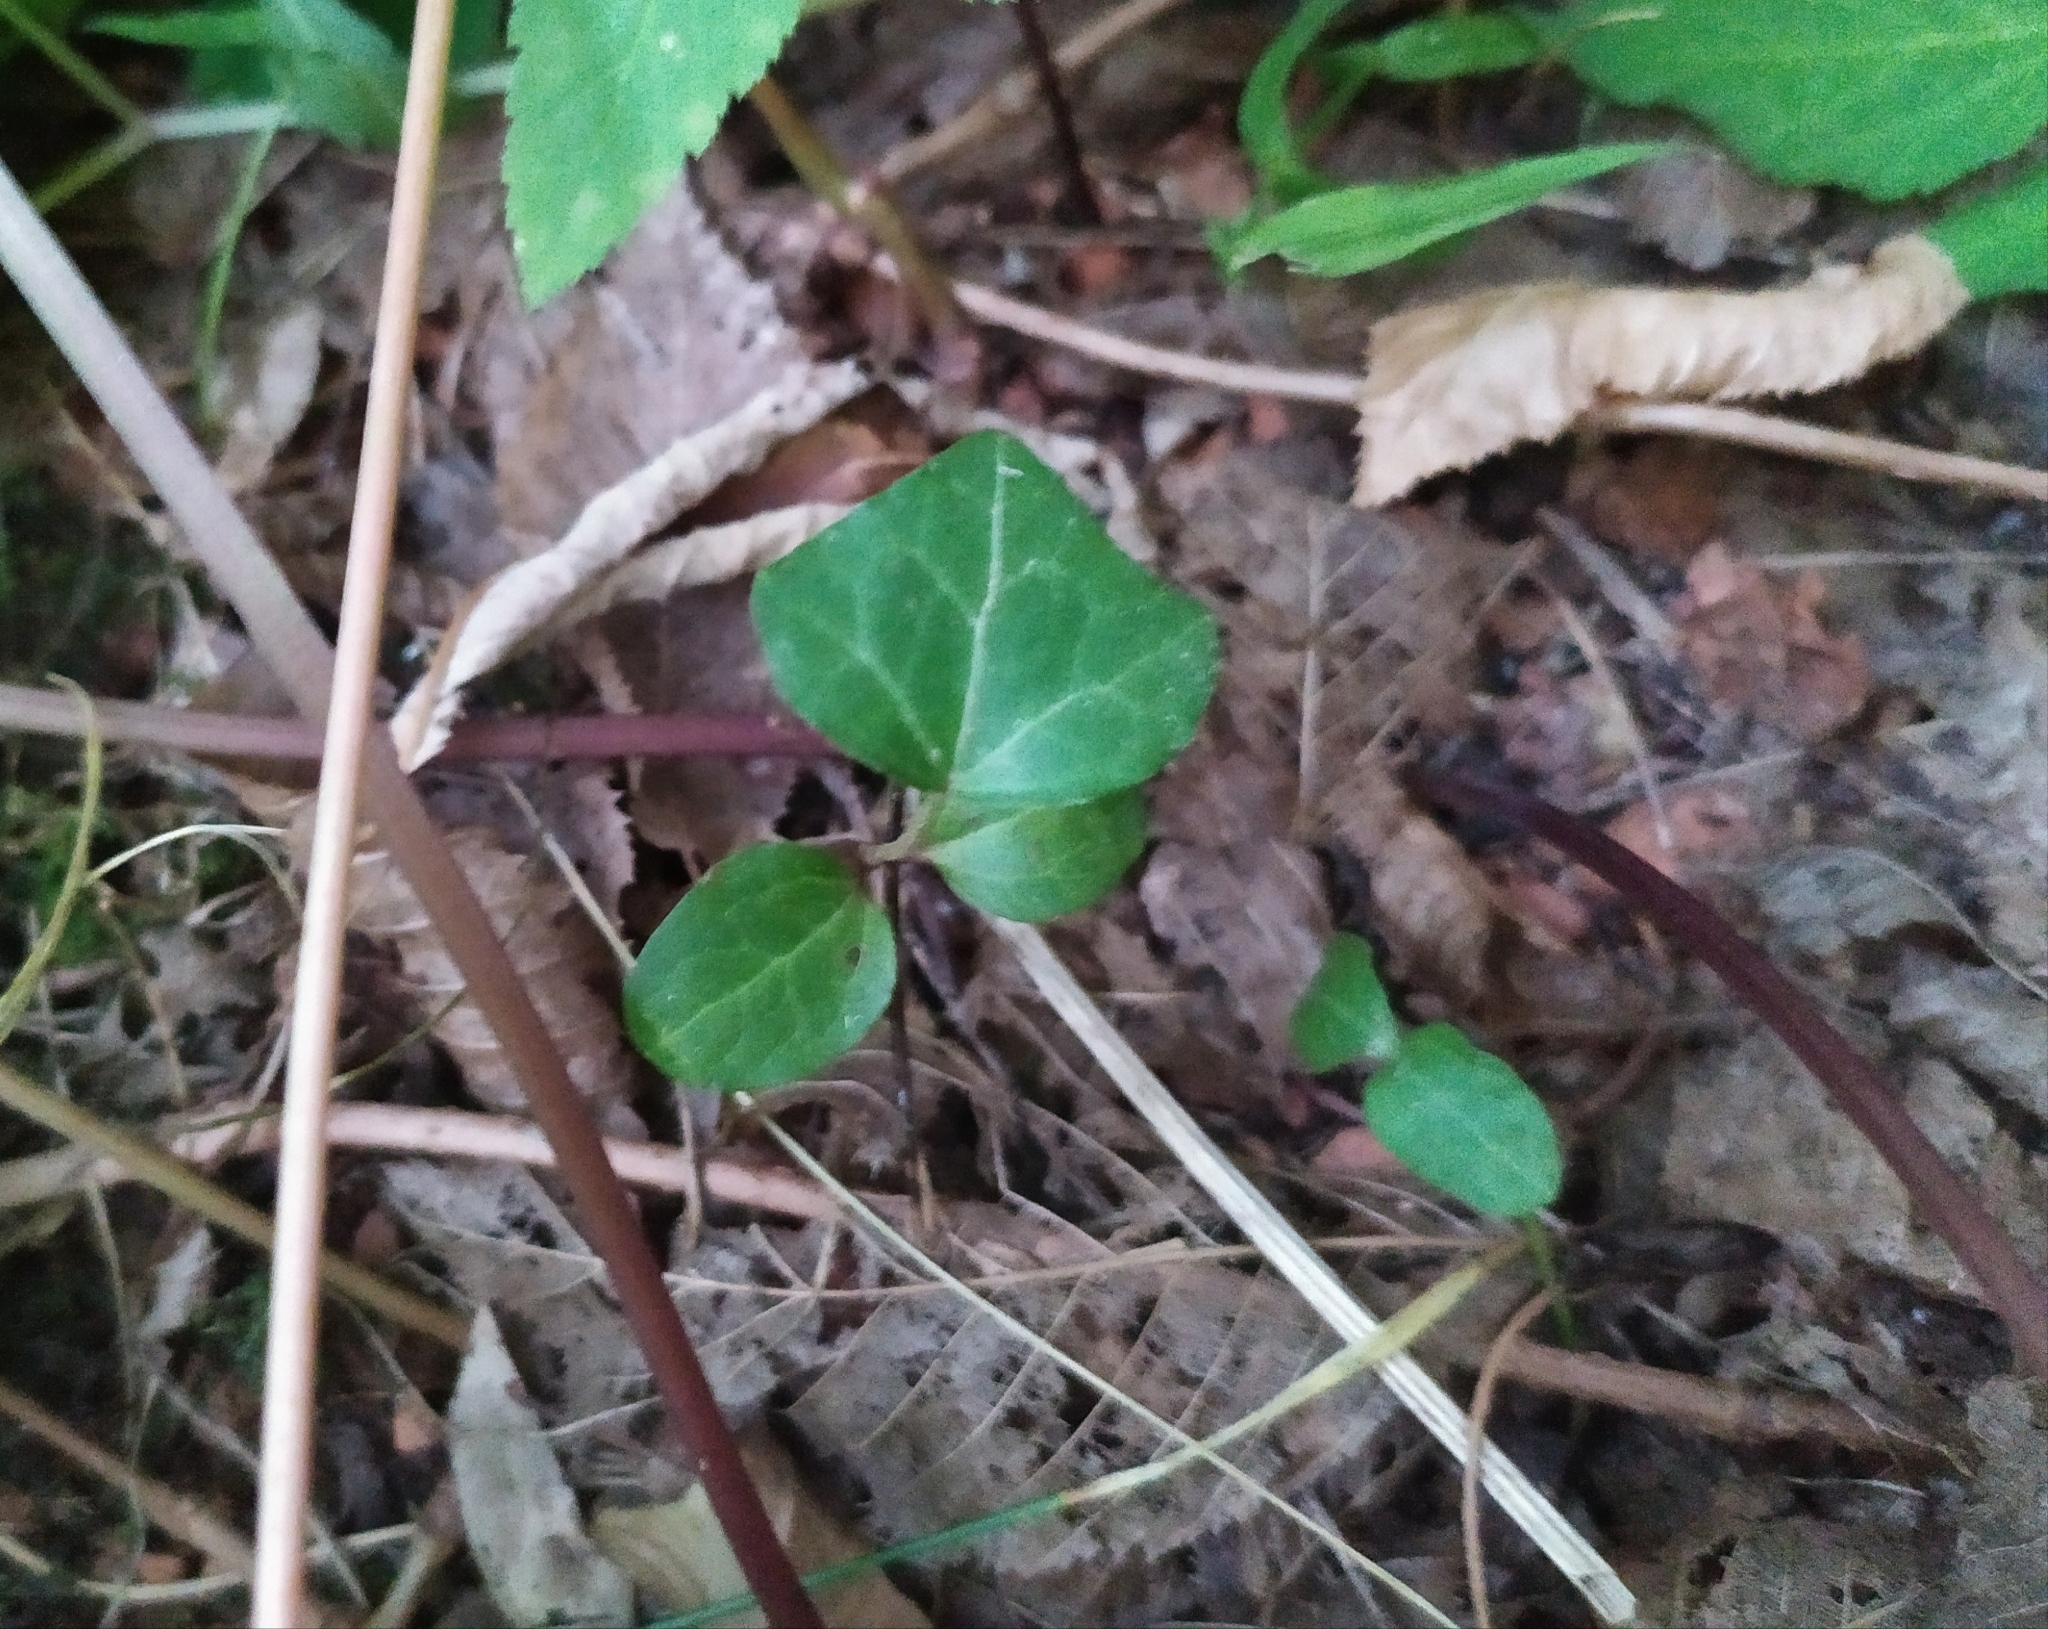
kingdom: Plantae
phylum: Tracheophyta
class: Magnoliopsida
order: Apiales
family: Araliaceae
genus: Hedera
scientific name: Hedera helix
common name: Ivy
